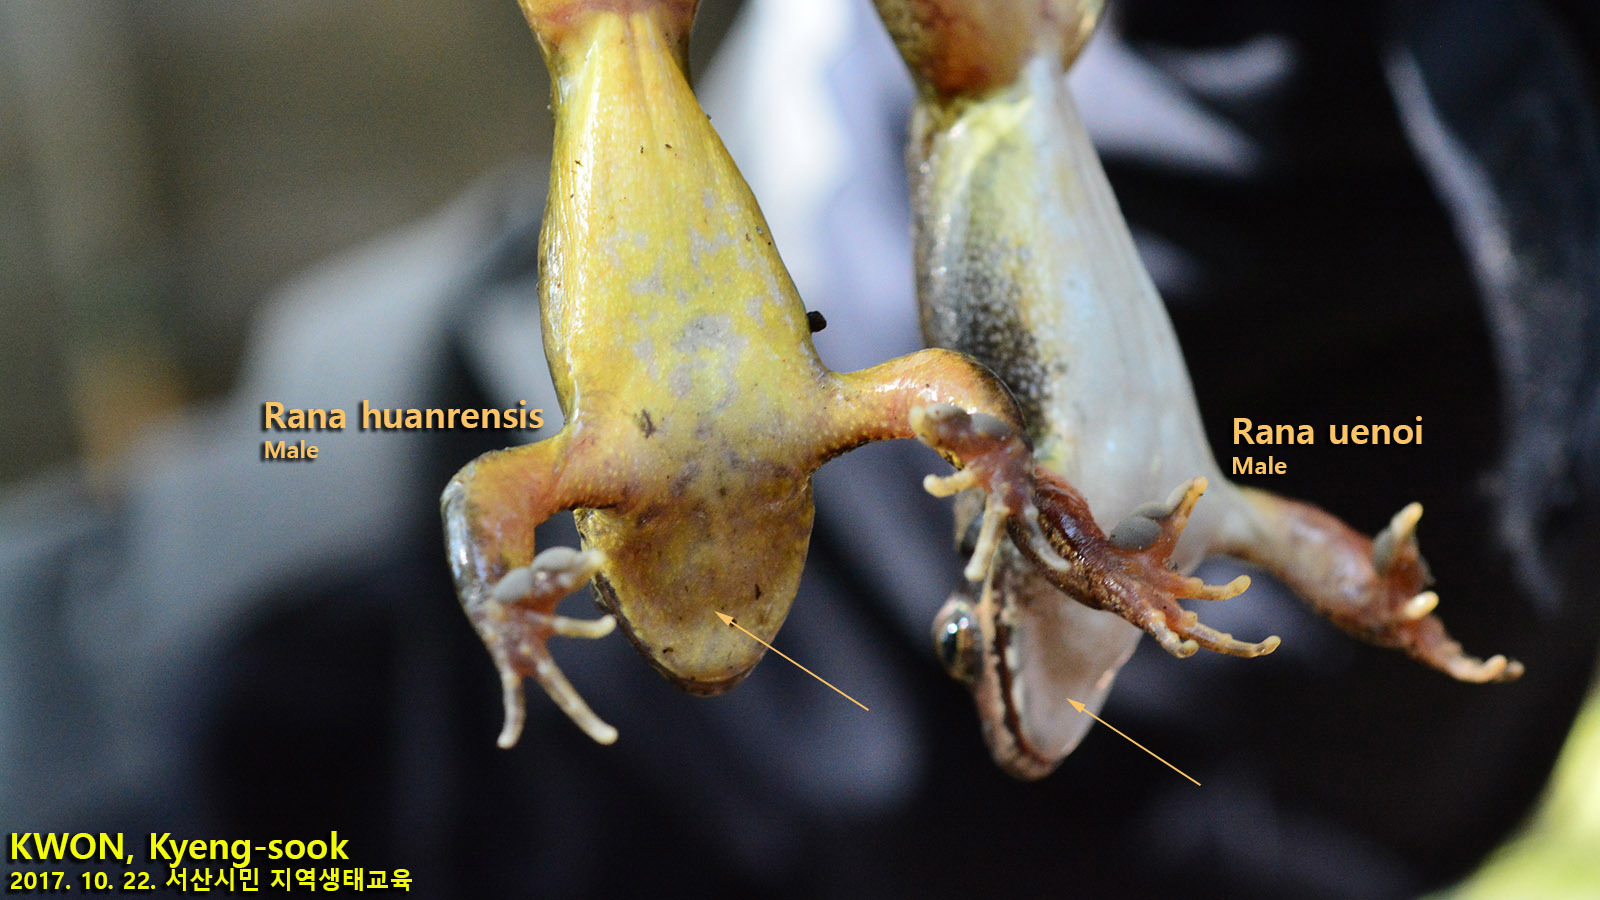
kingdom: Animalia
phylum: Chordata
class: Amphibia
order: Anura
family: Ranidae
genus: Rana
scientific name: Rana huanrenensis
